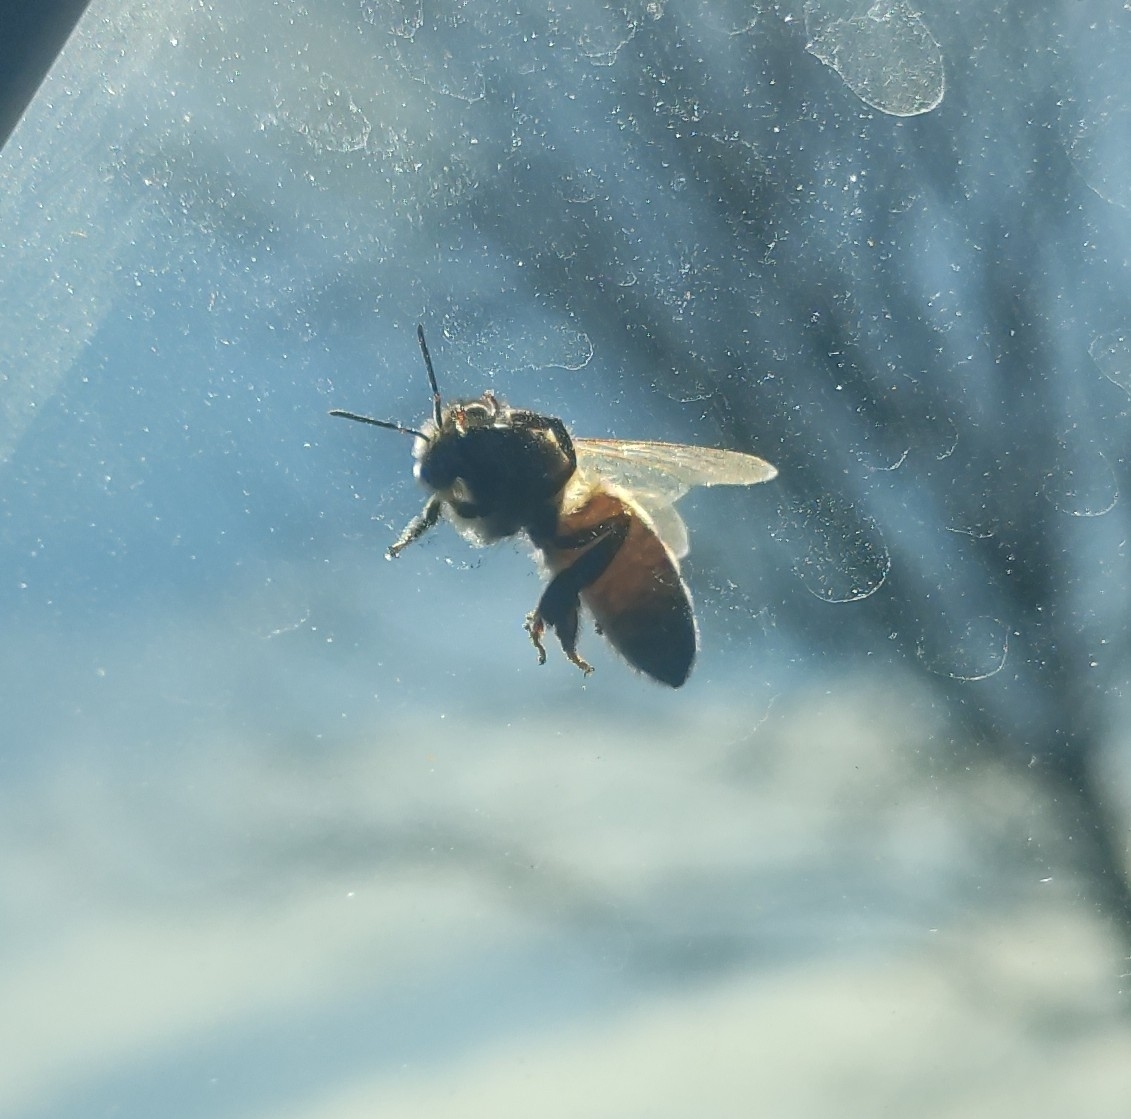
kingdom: Animalia
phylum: Arthropoda
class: Insecta
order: Hymenoptera
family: Apidae
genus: Apis
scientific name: Apis mellifera
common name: Honey bee
